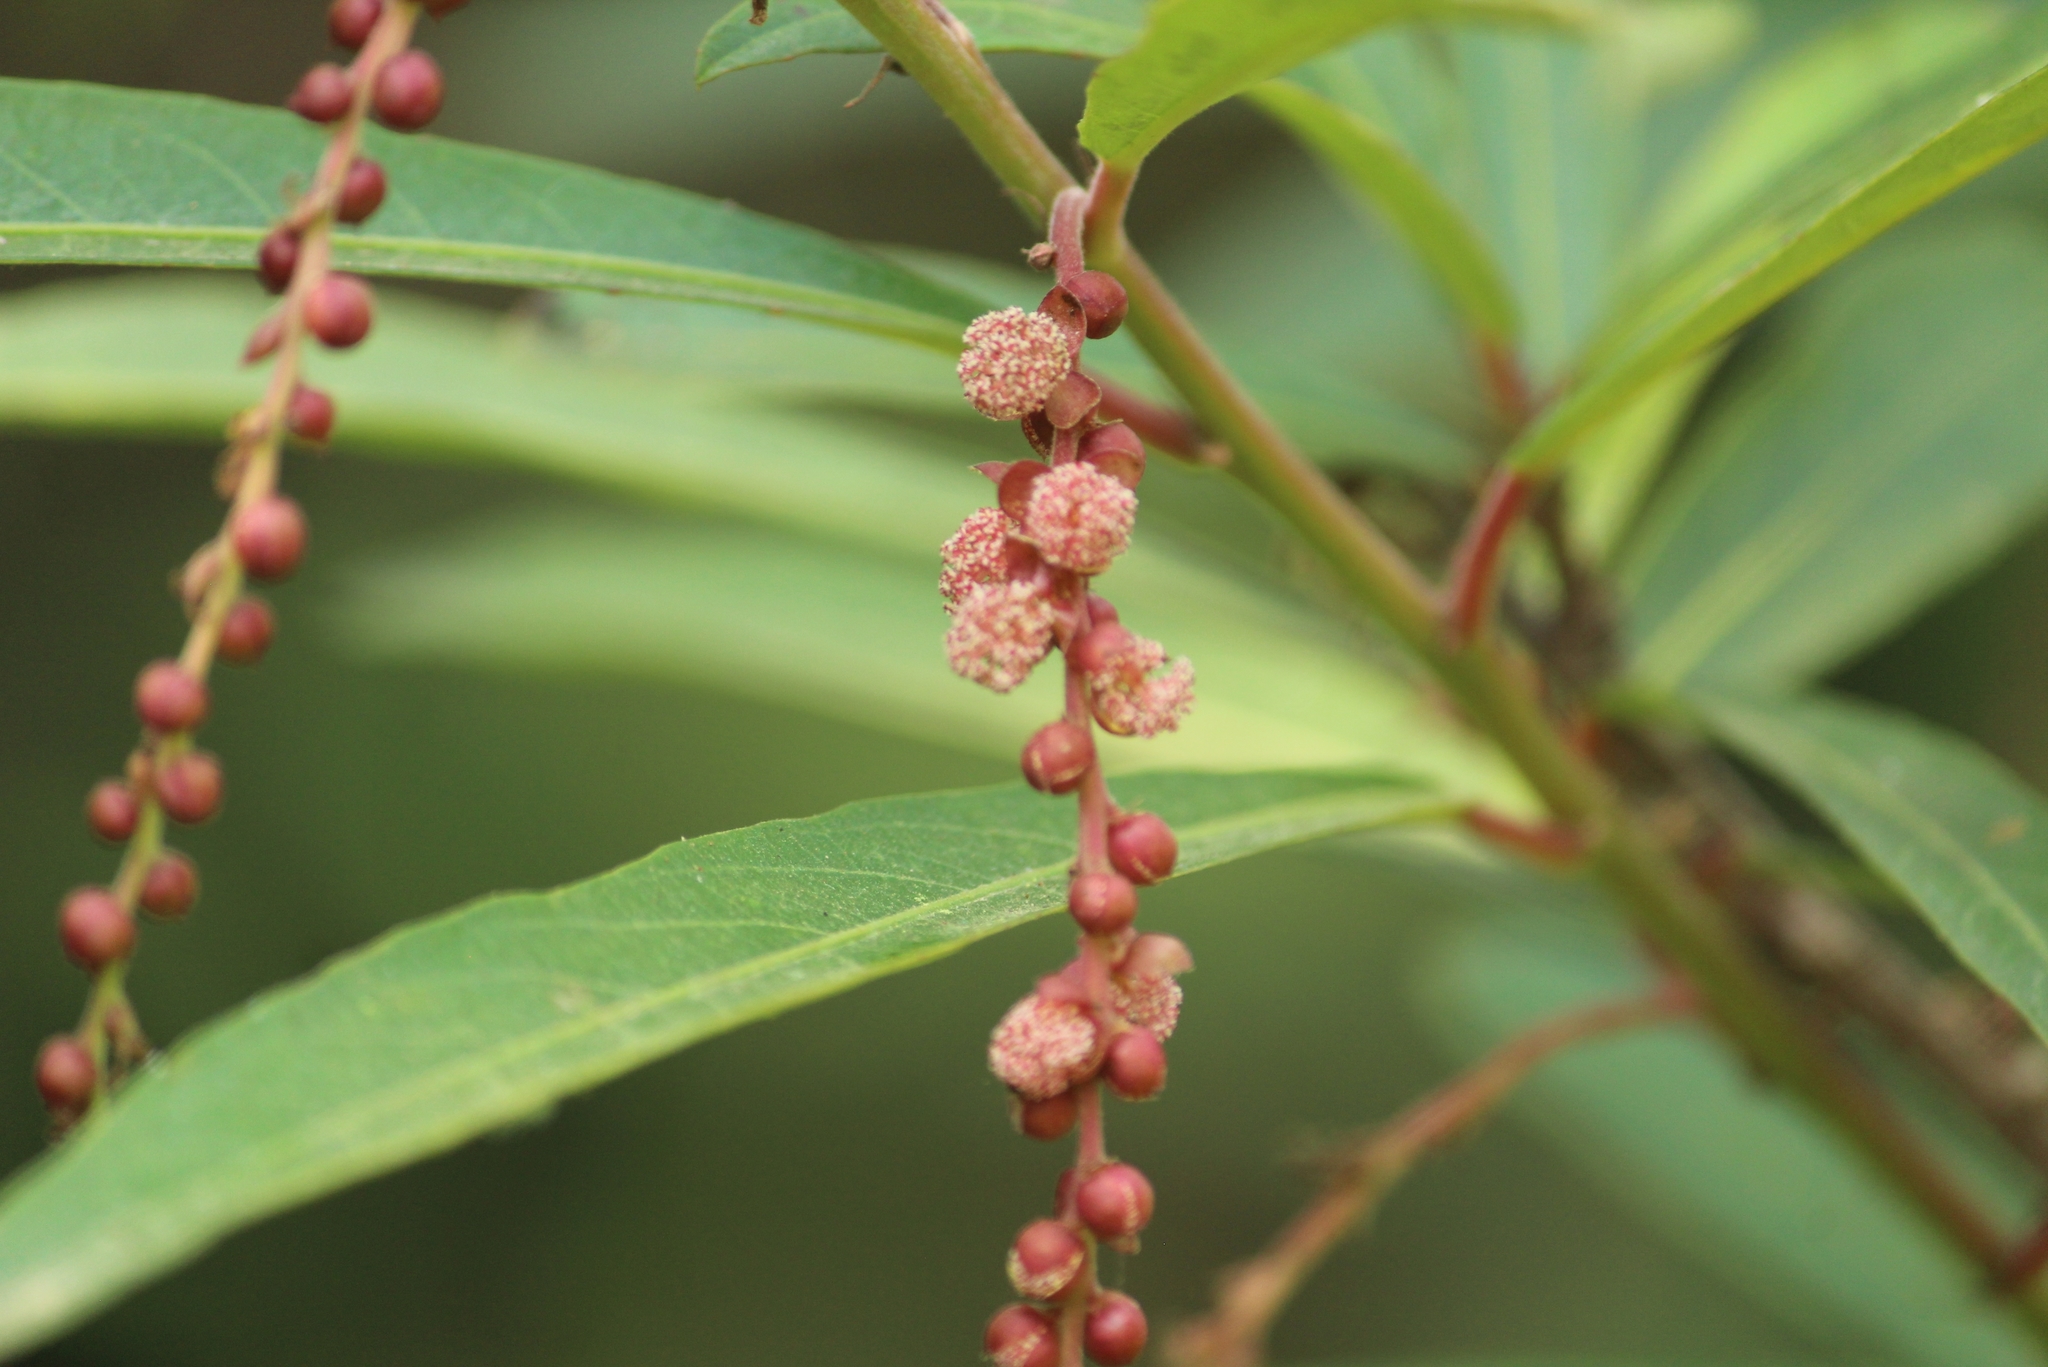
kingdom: Plantae
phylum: Tracheophyta
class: Magnoliopsida
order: Malpighiales
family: Euphorbiaceae
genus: Homonoia
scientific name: Homonoia riparia
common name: Willow-leaved water croton
